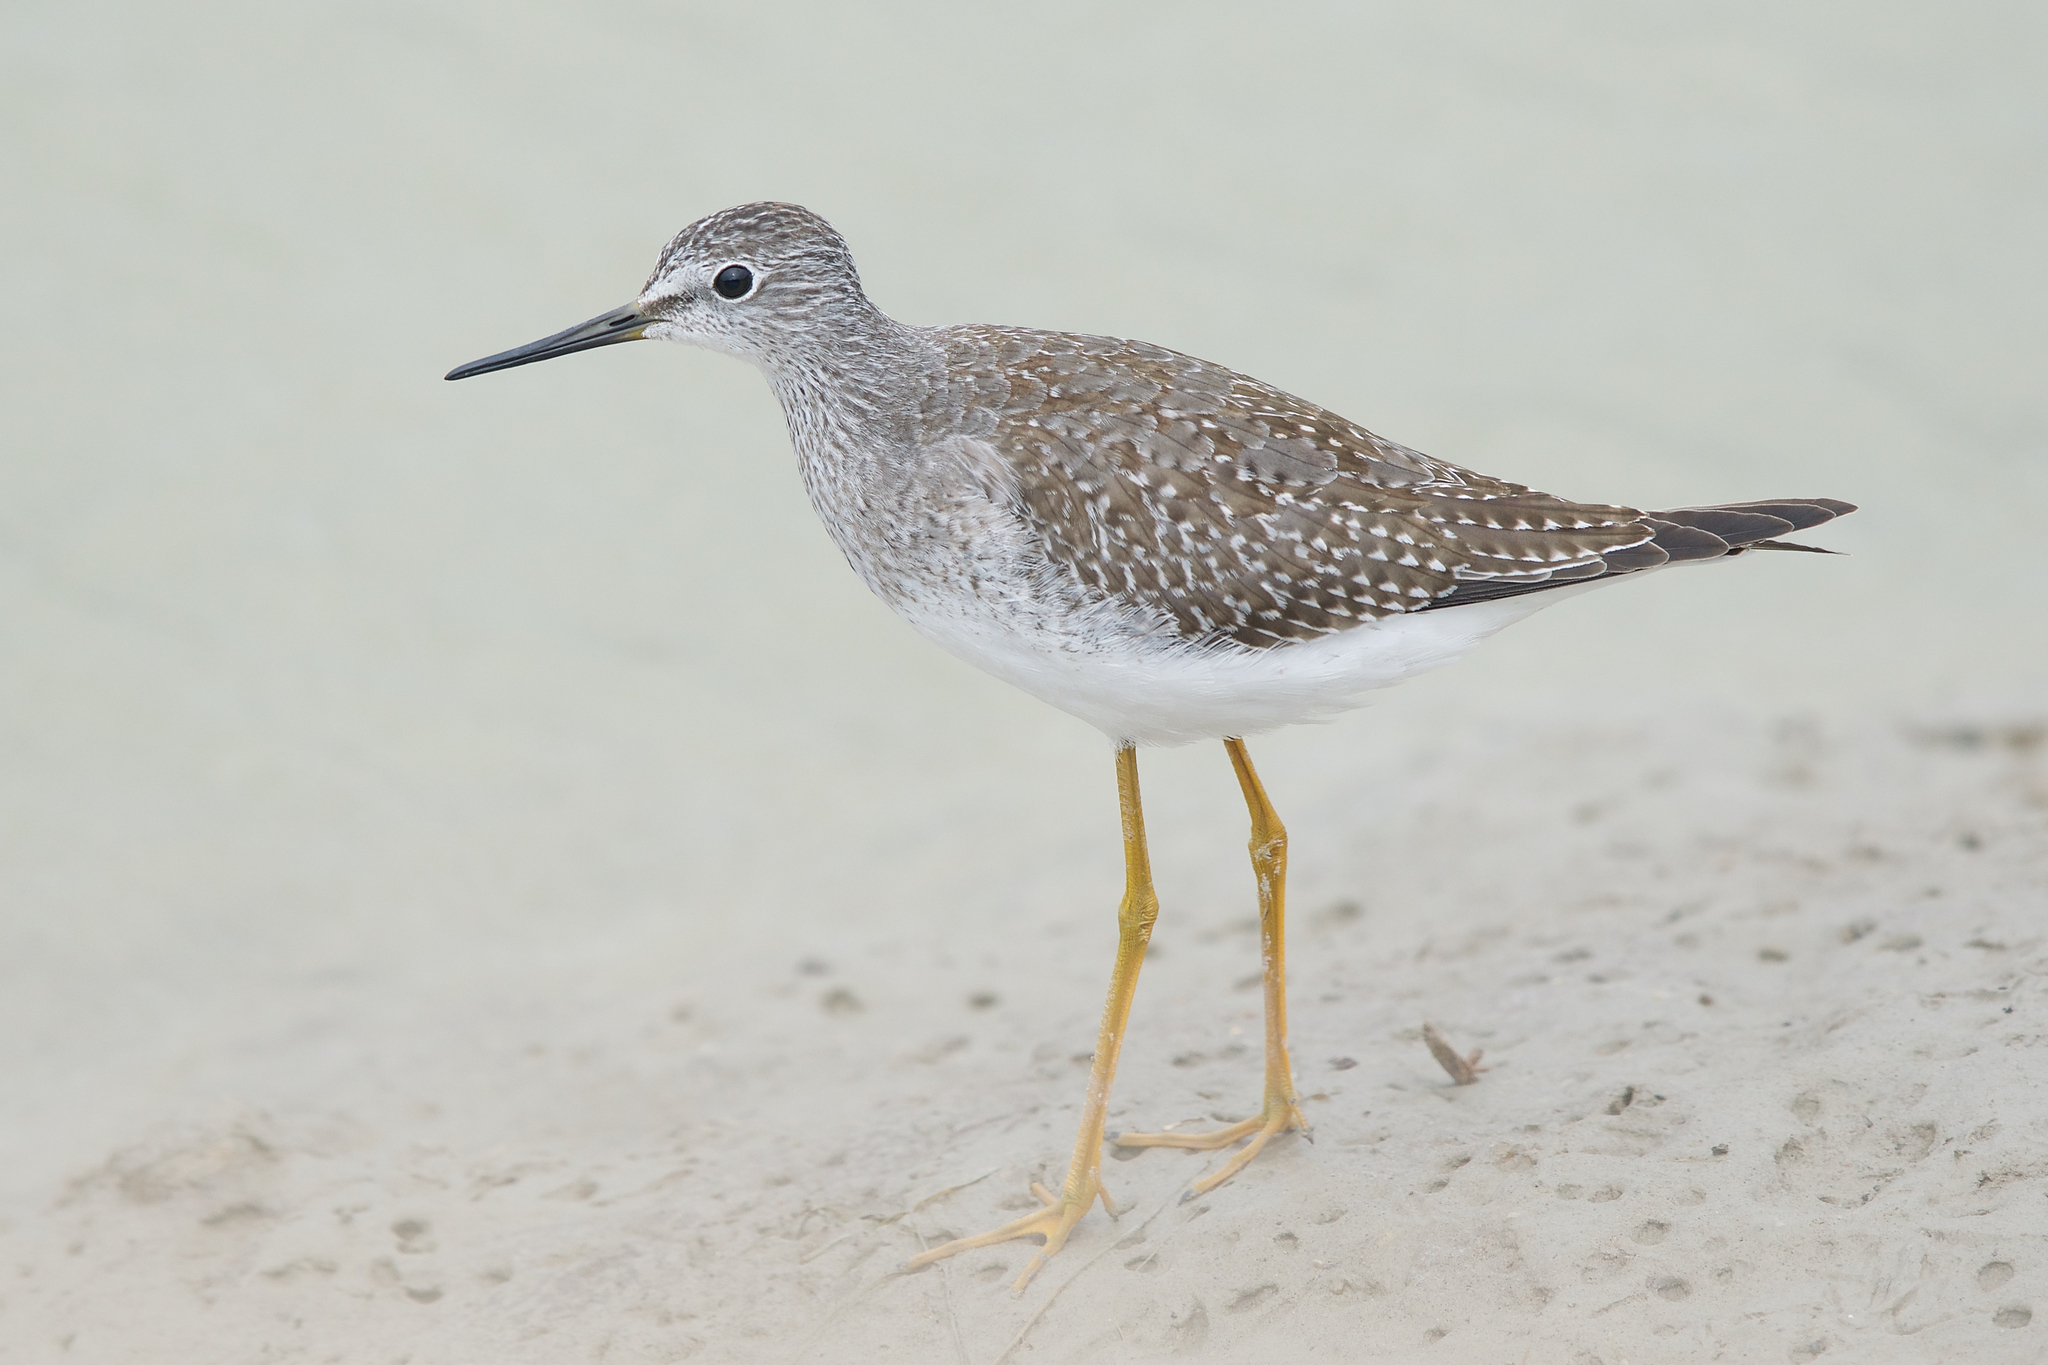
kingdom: Animalia
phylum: Chordata
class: Aves
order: Charadriiformes
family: Scolopacidae
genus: Tringa
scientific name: Tringa flavipes
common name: Lesser yellowlegs
